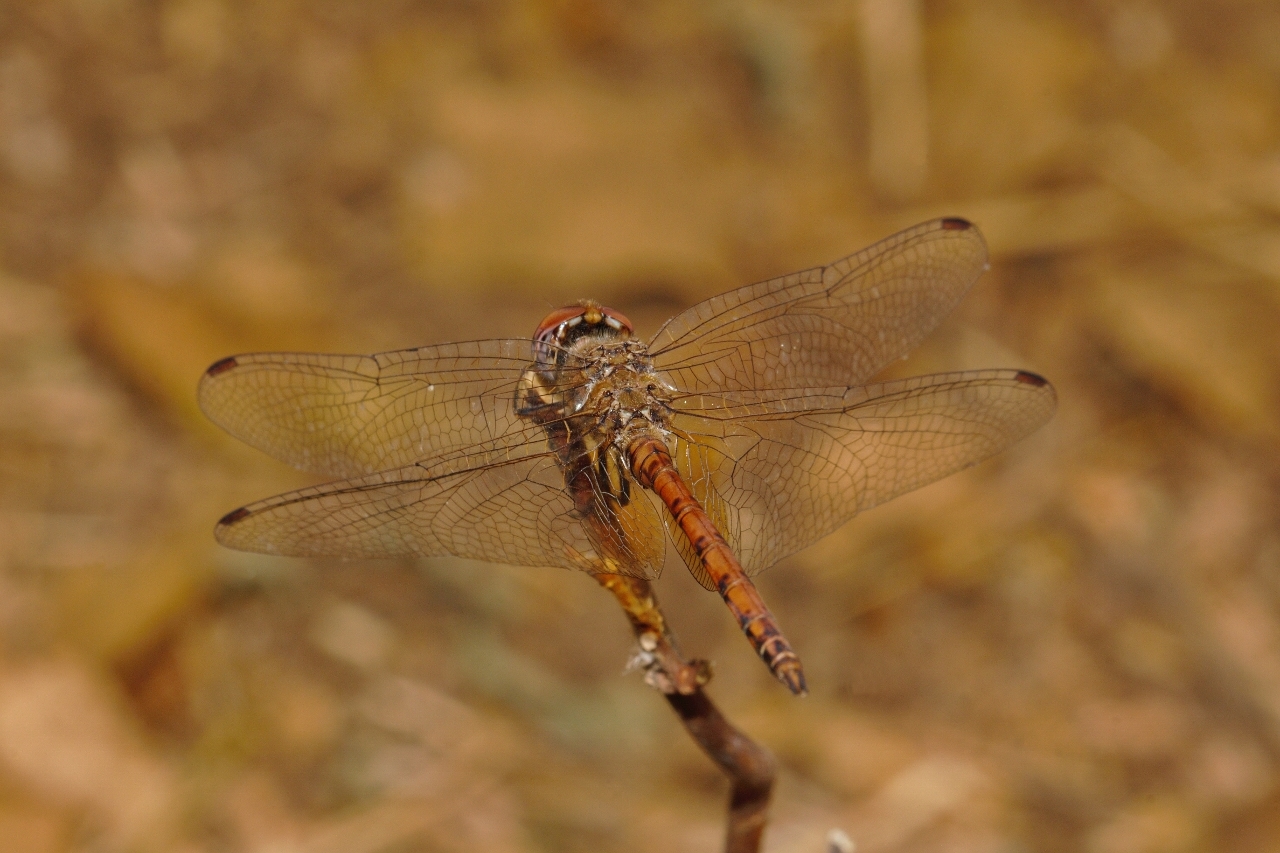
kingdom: Animalia
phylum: Arthropoda
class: Insecta
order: Odonata
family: Libellulidae
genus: Trithemis
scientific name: Trithemis werneri
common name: Elegant dropwing
